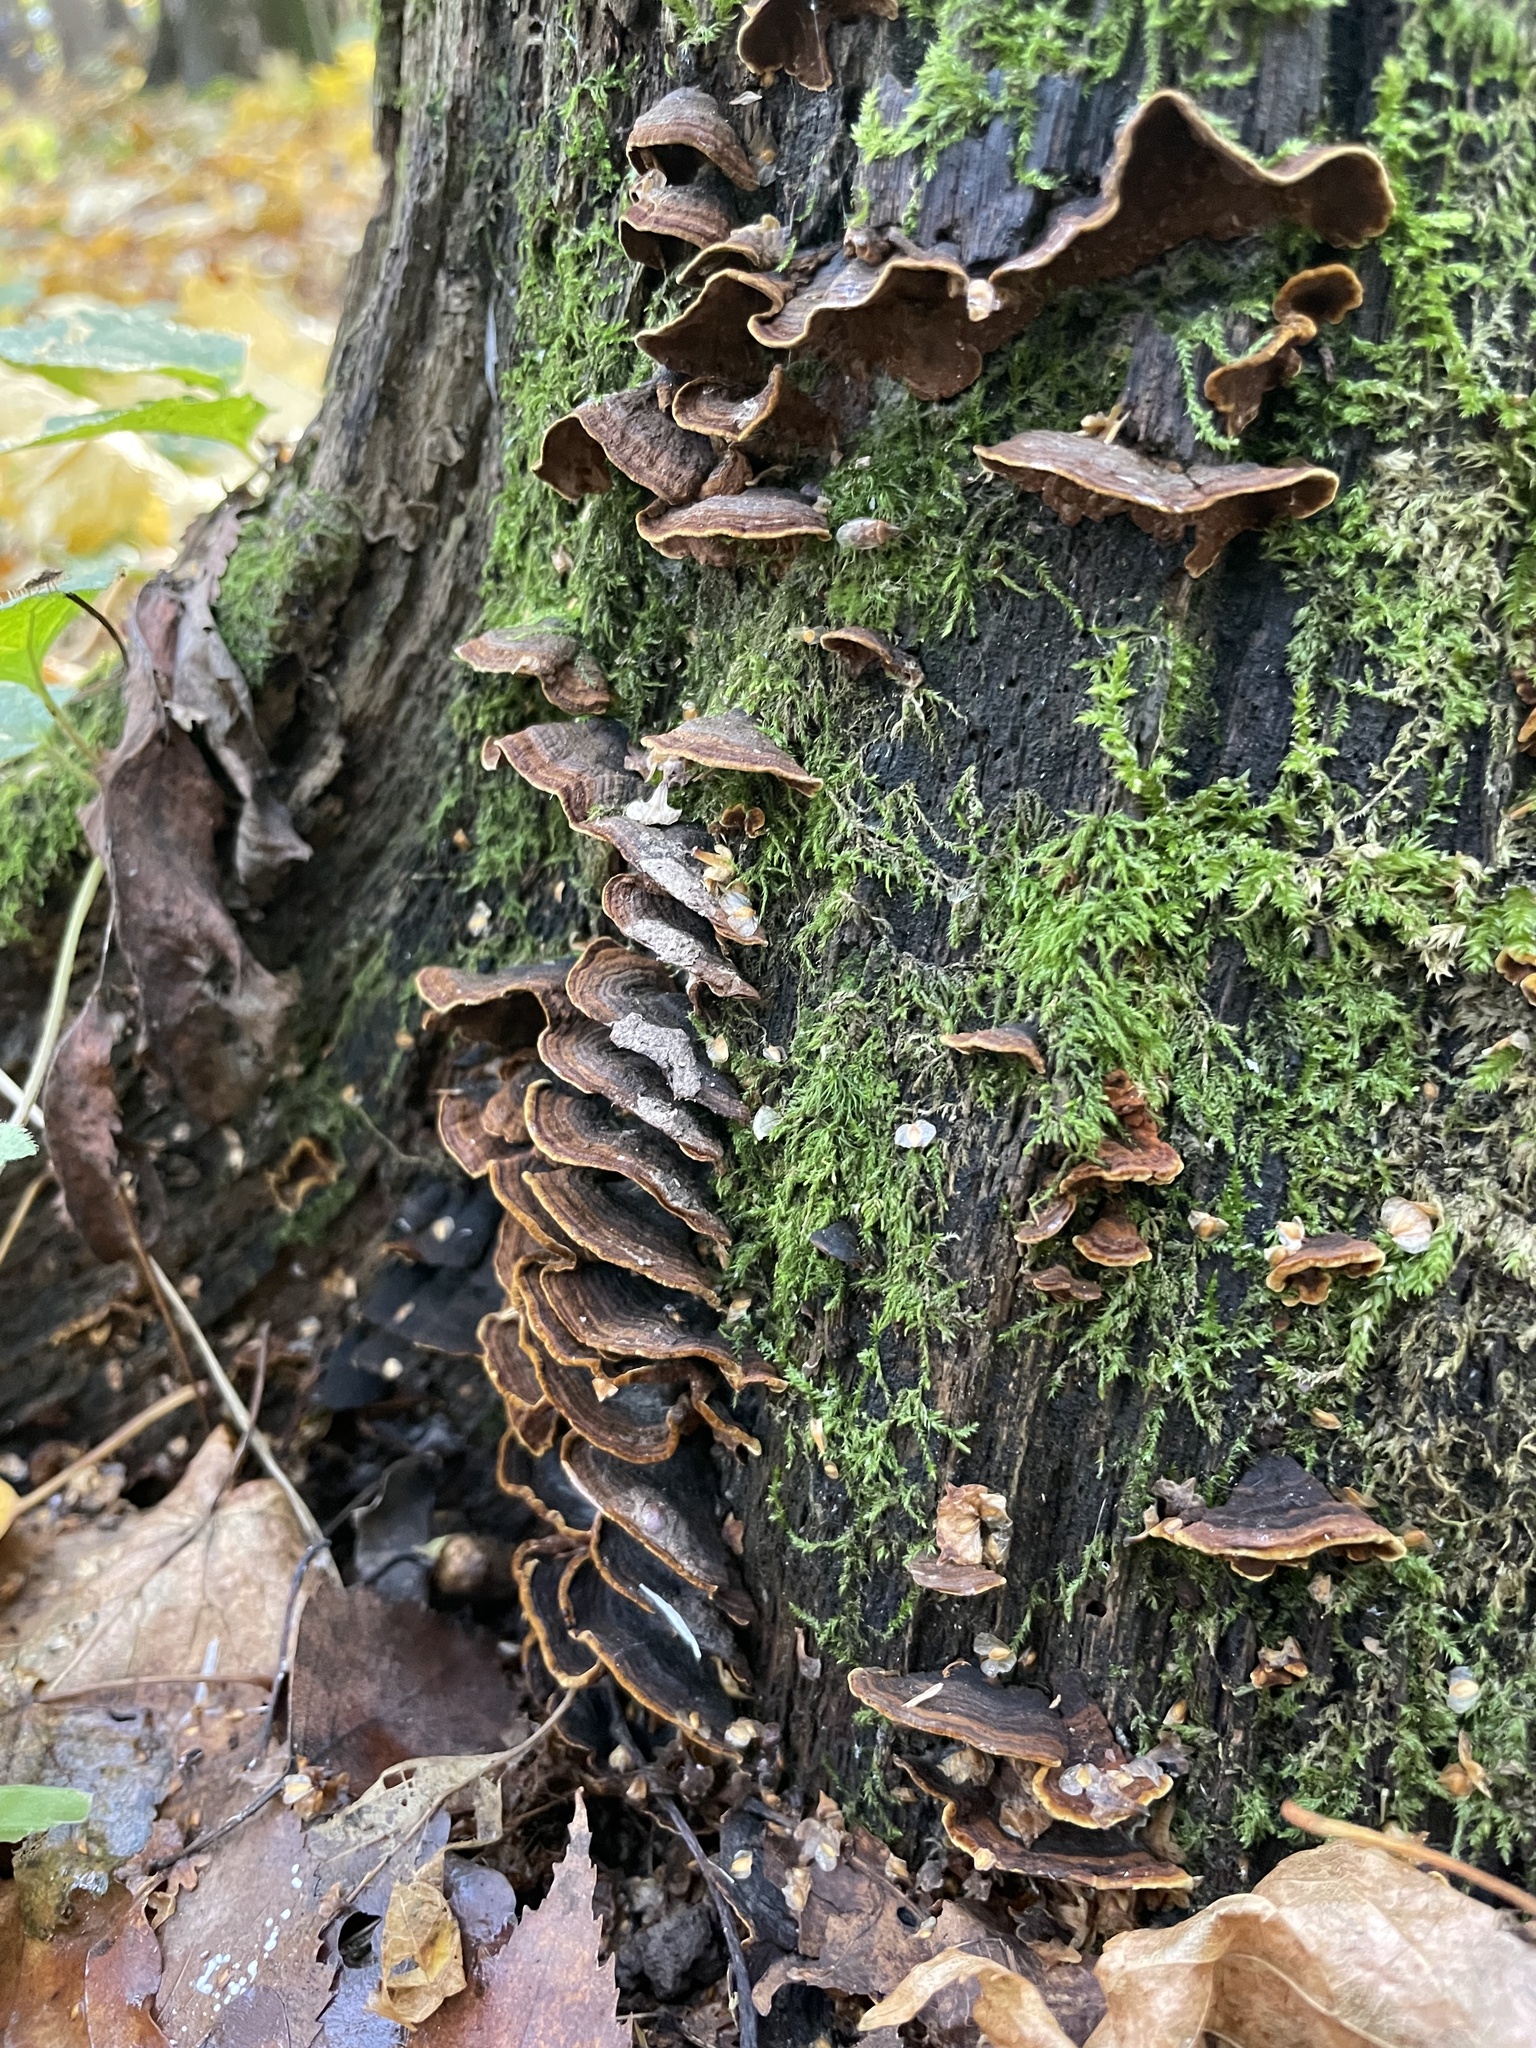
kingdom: Fungi
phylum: Basidiomycota
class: Agaricomycetes
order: Hymenochaetales
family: Hymenochaetaceae
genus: Hymenochaete
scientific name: Hymenochaete rubiginosa
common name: Oak curtain crust
